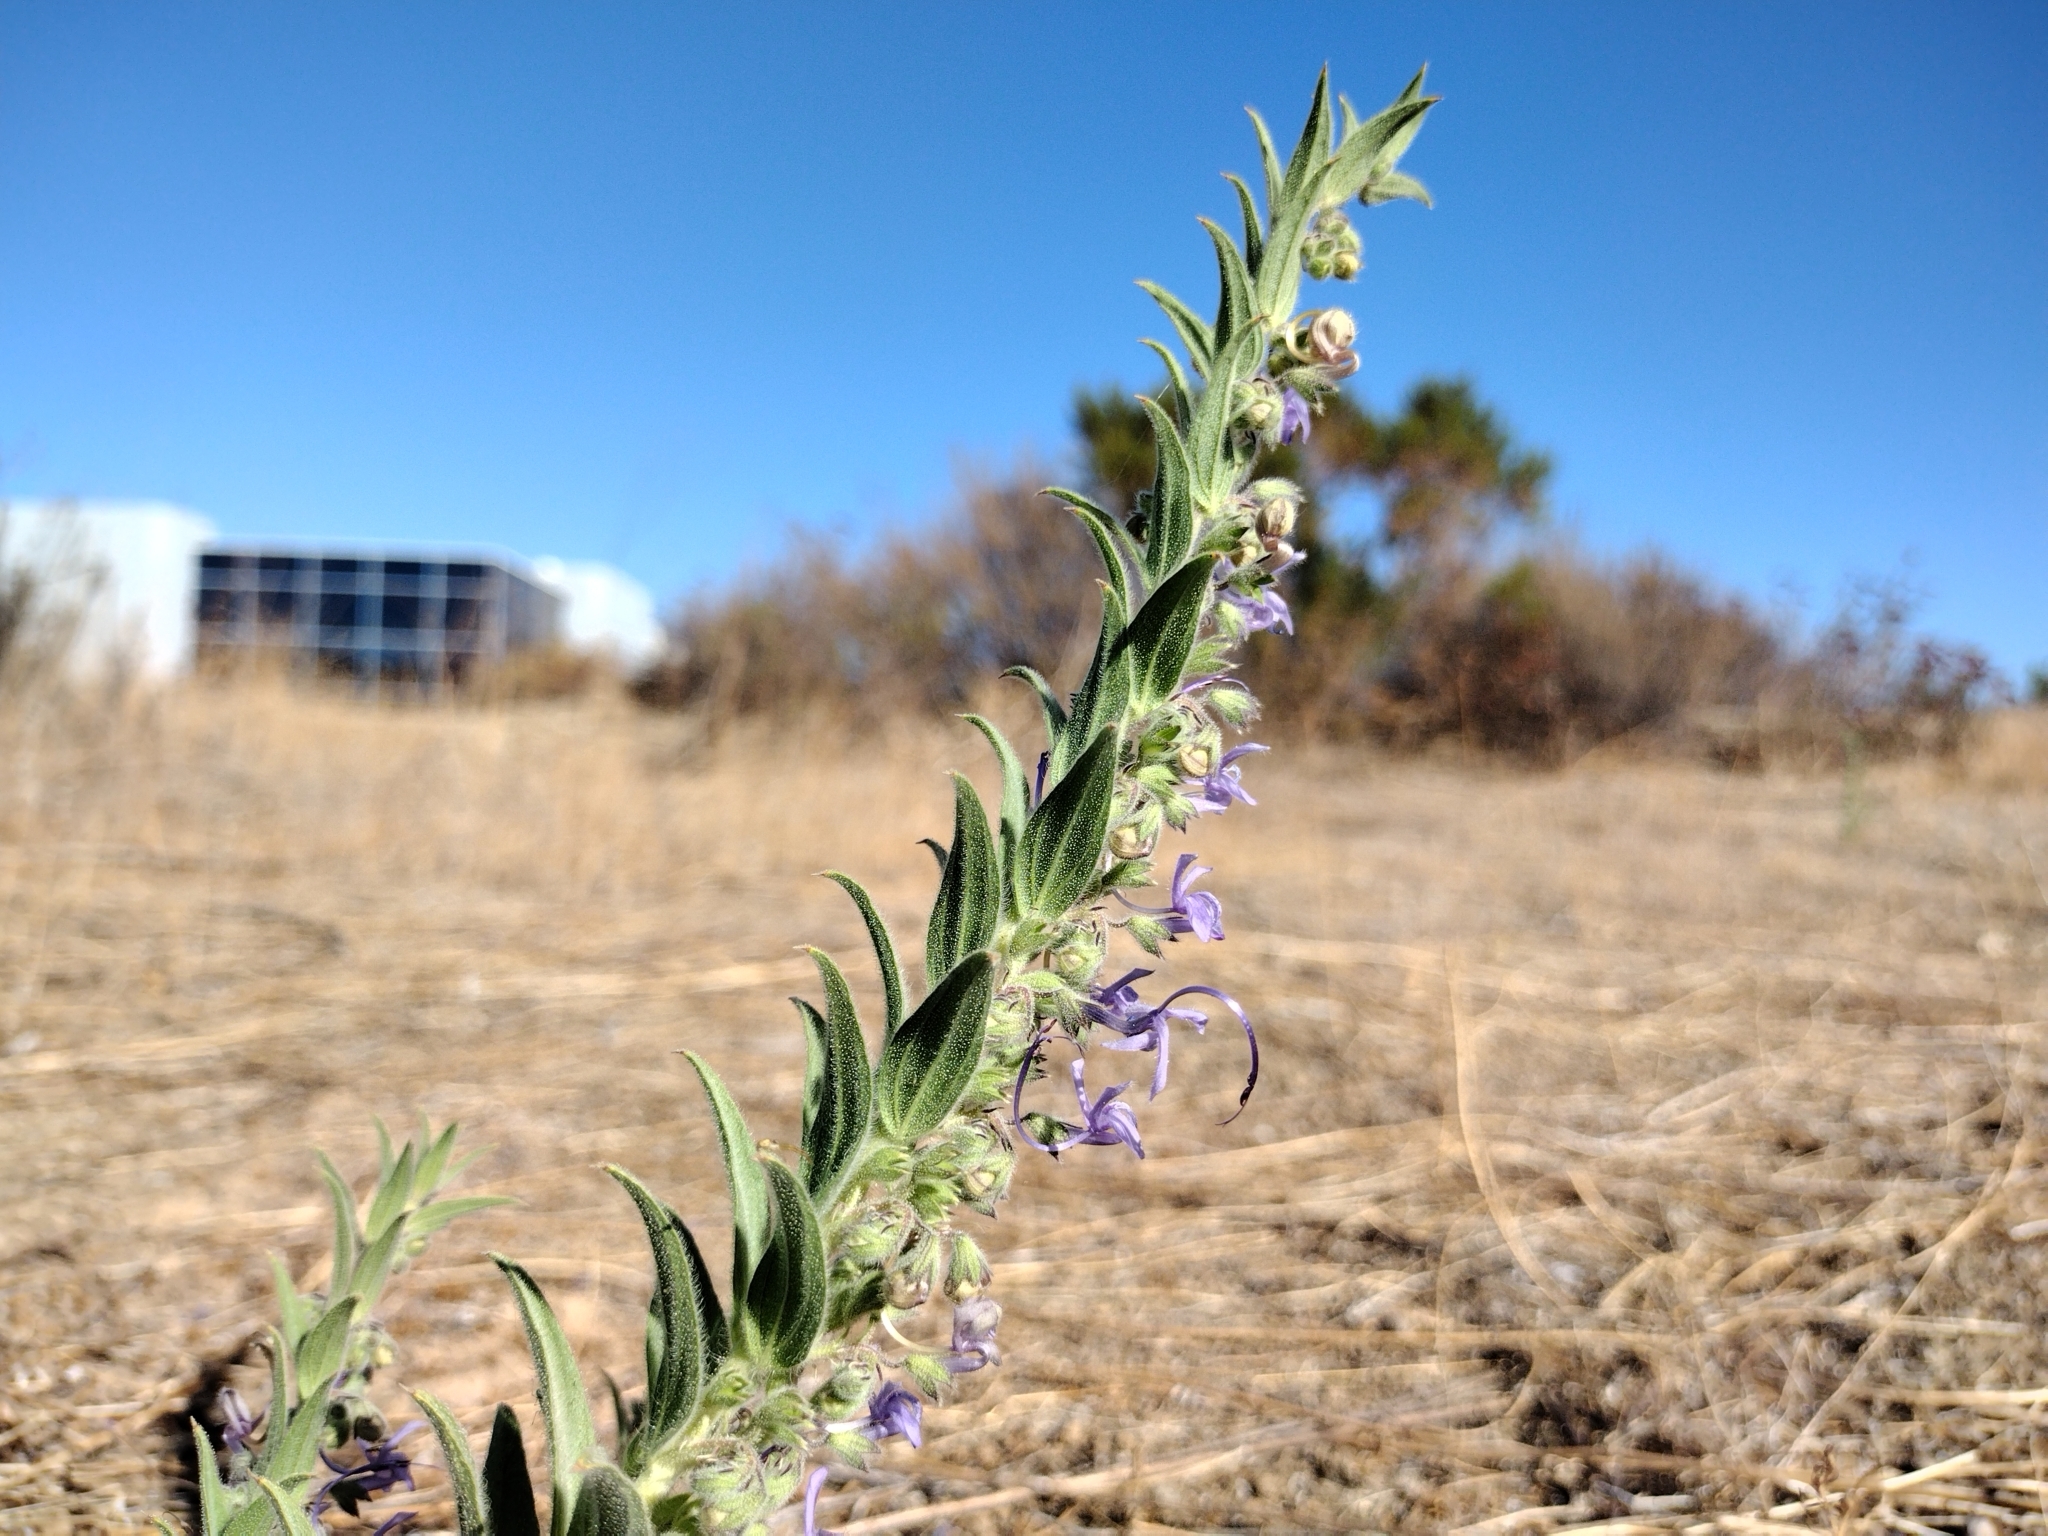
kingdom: Plantae
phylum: Tracheophyta
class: Magnoliopsida
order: Lamiales
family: Lamiaceae
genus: Trichostema
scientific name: Trichostema lanceolatum
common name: Vinegar-weed
